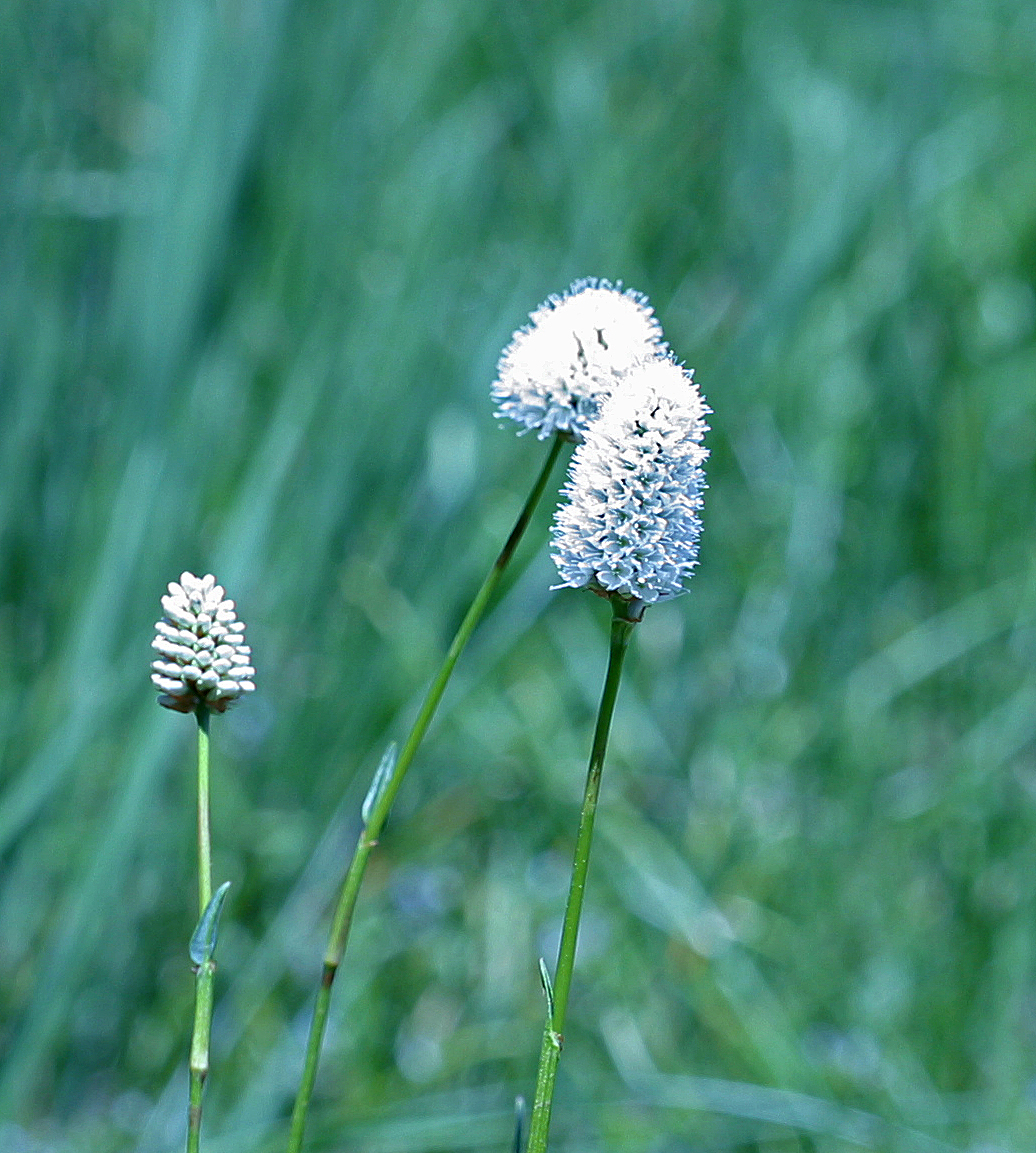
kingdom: Plantae
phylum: Tracheophyta
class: Magnoliopsida
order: Caryophyllales
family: Polygonaceae
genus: Bistorta
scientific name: Bistorta bistortoides
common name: American bistort
